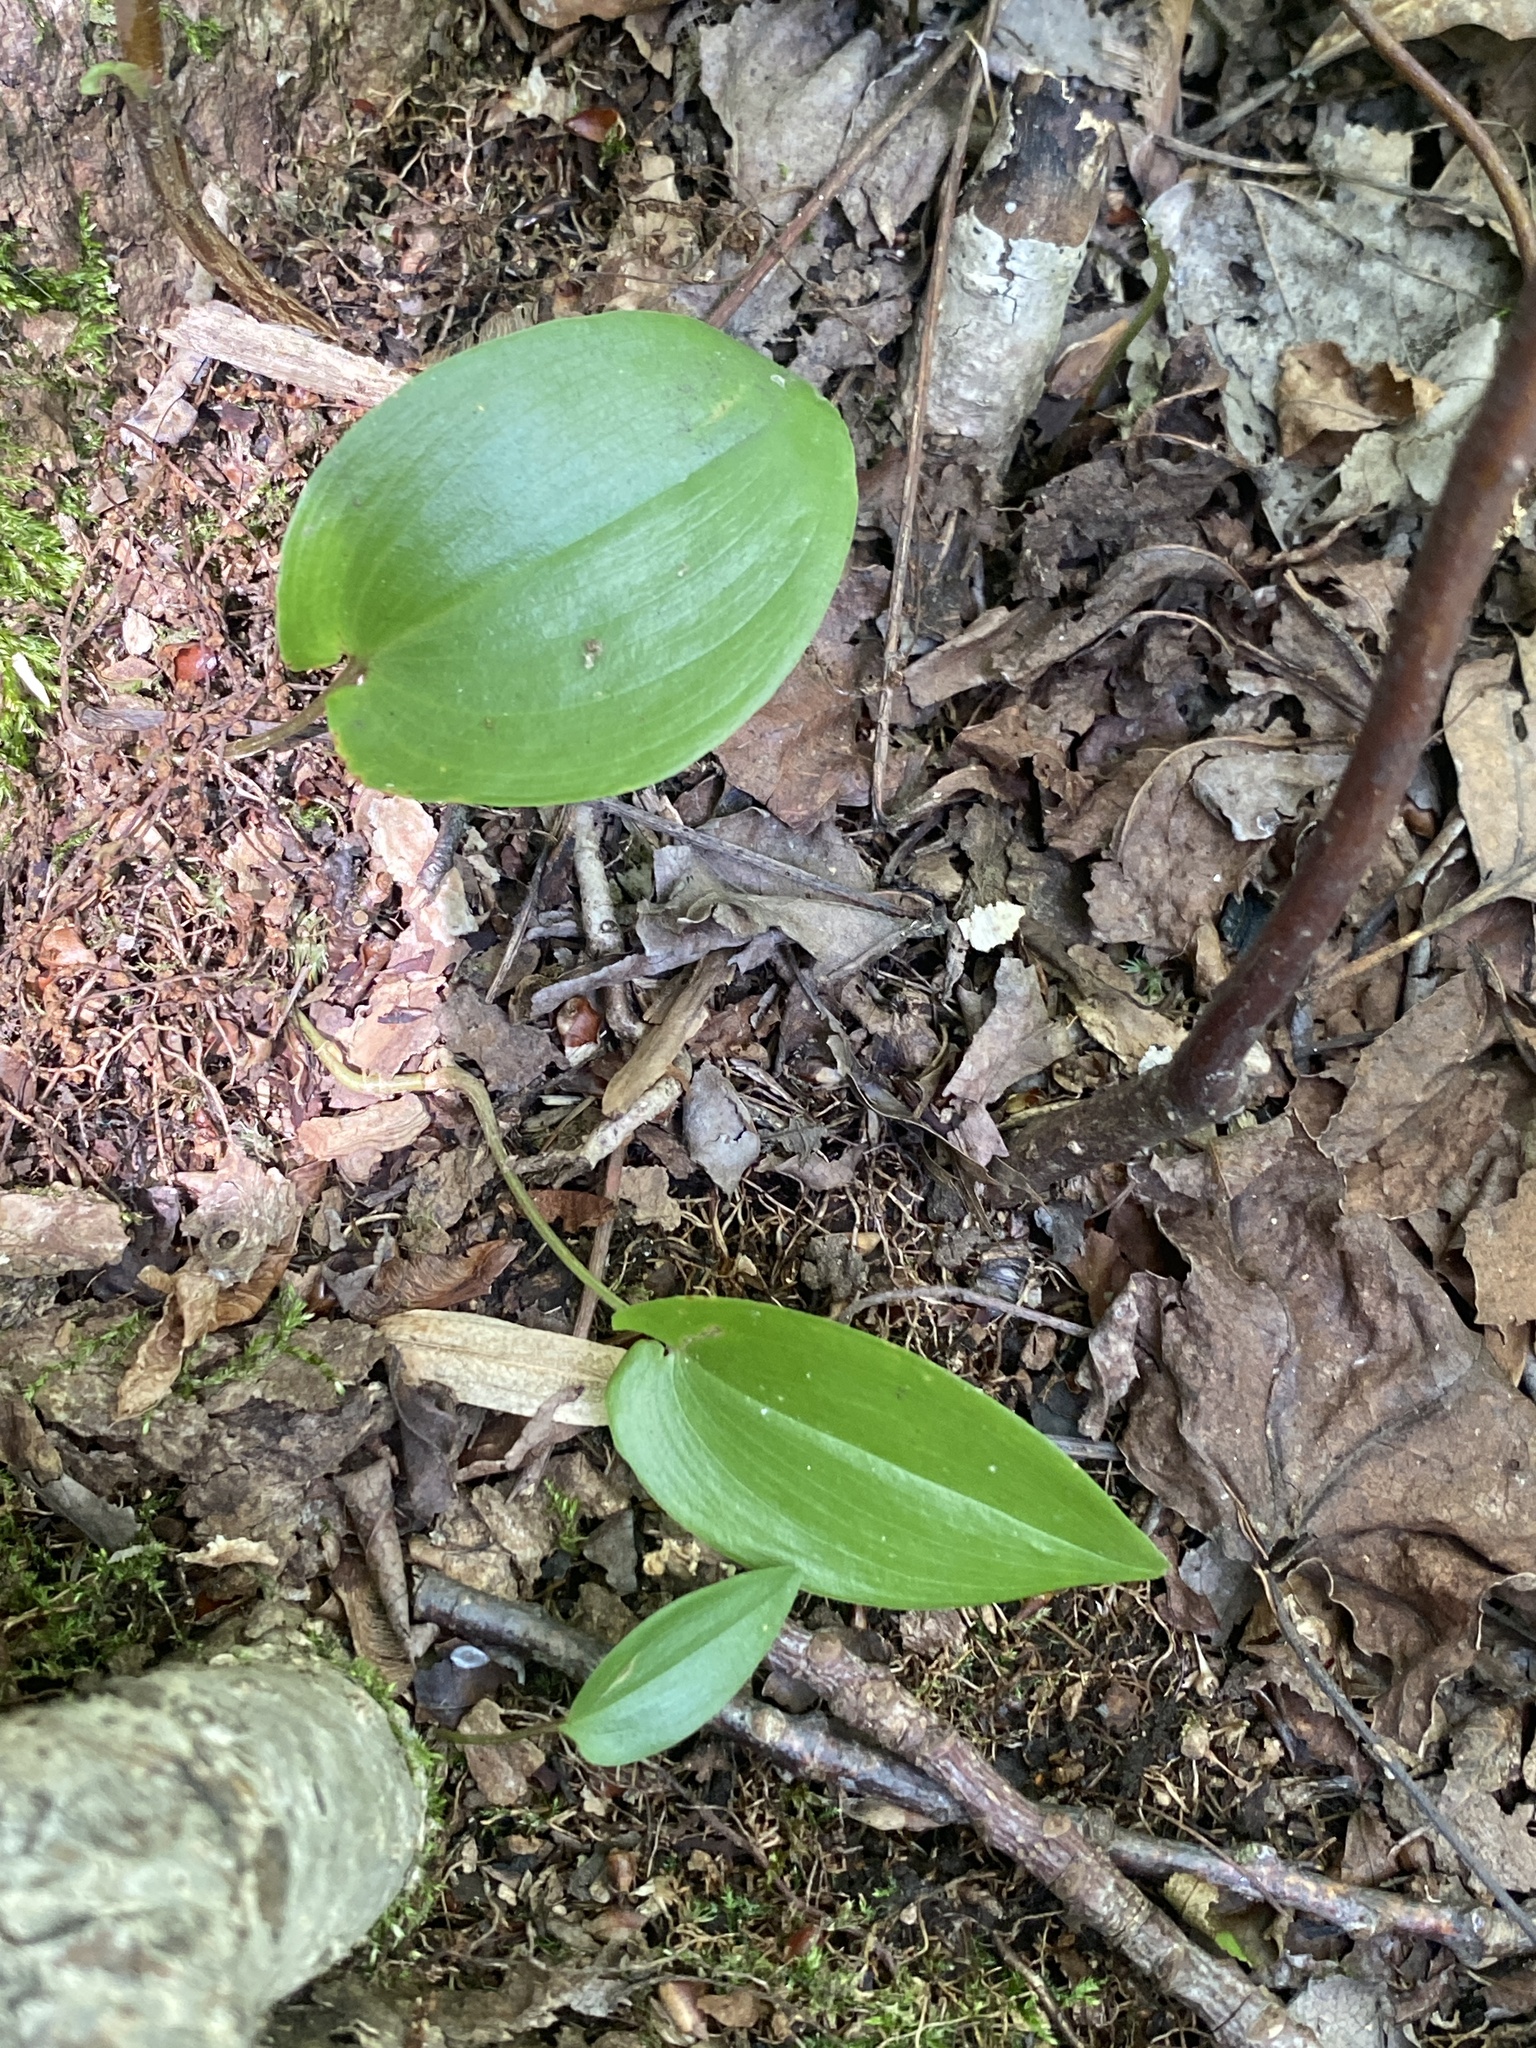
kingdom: Plantae
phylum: Tracheophyta
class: Liliopsida
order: Asparagales
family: Asparagaceae
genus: Maianthemum
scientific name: Maianthemum canadense
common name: False lily-of-the-valley
